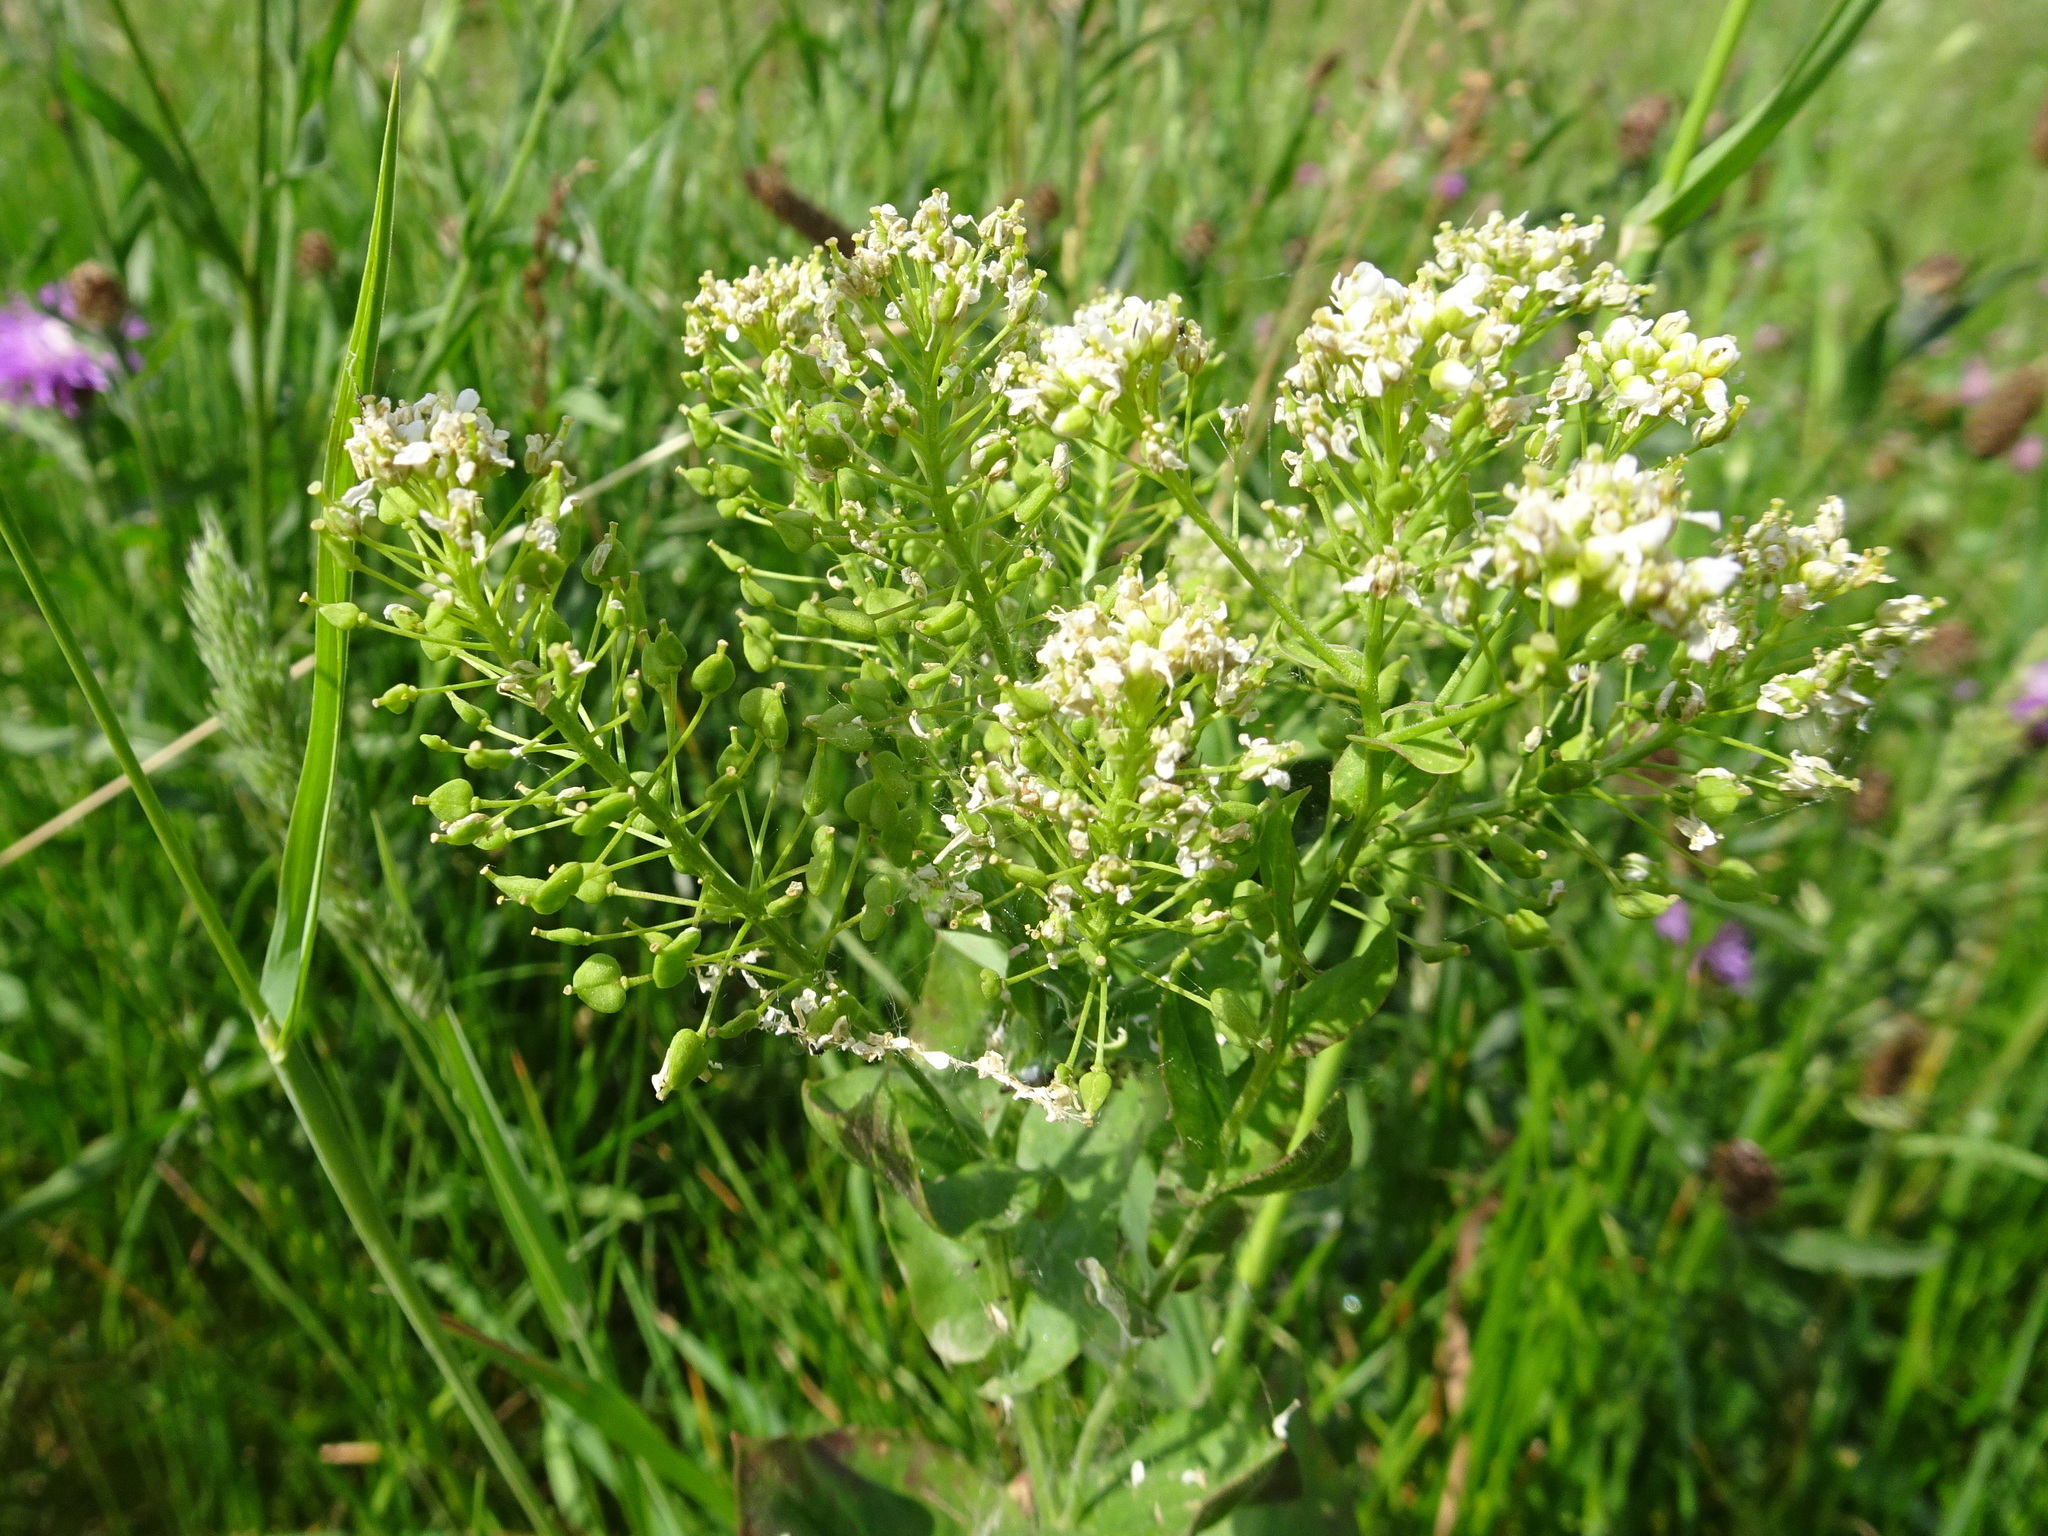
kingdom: Plantae
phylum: Tracheophyta
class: Magnoliopsida
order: Brassicales
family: Brassicaceae
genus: Lepidium
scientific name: Lepidium draba
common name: Hoary cress
